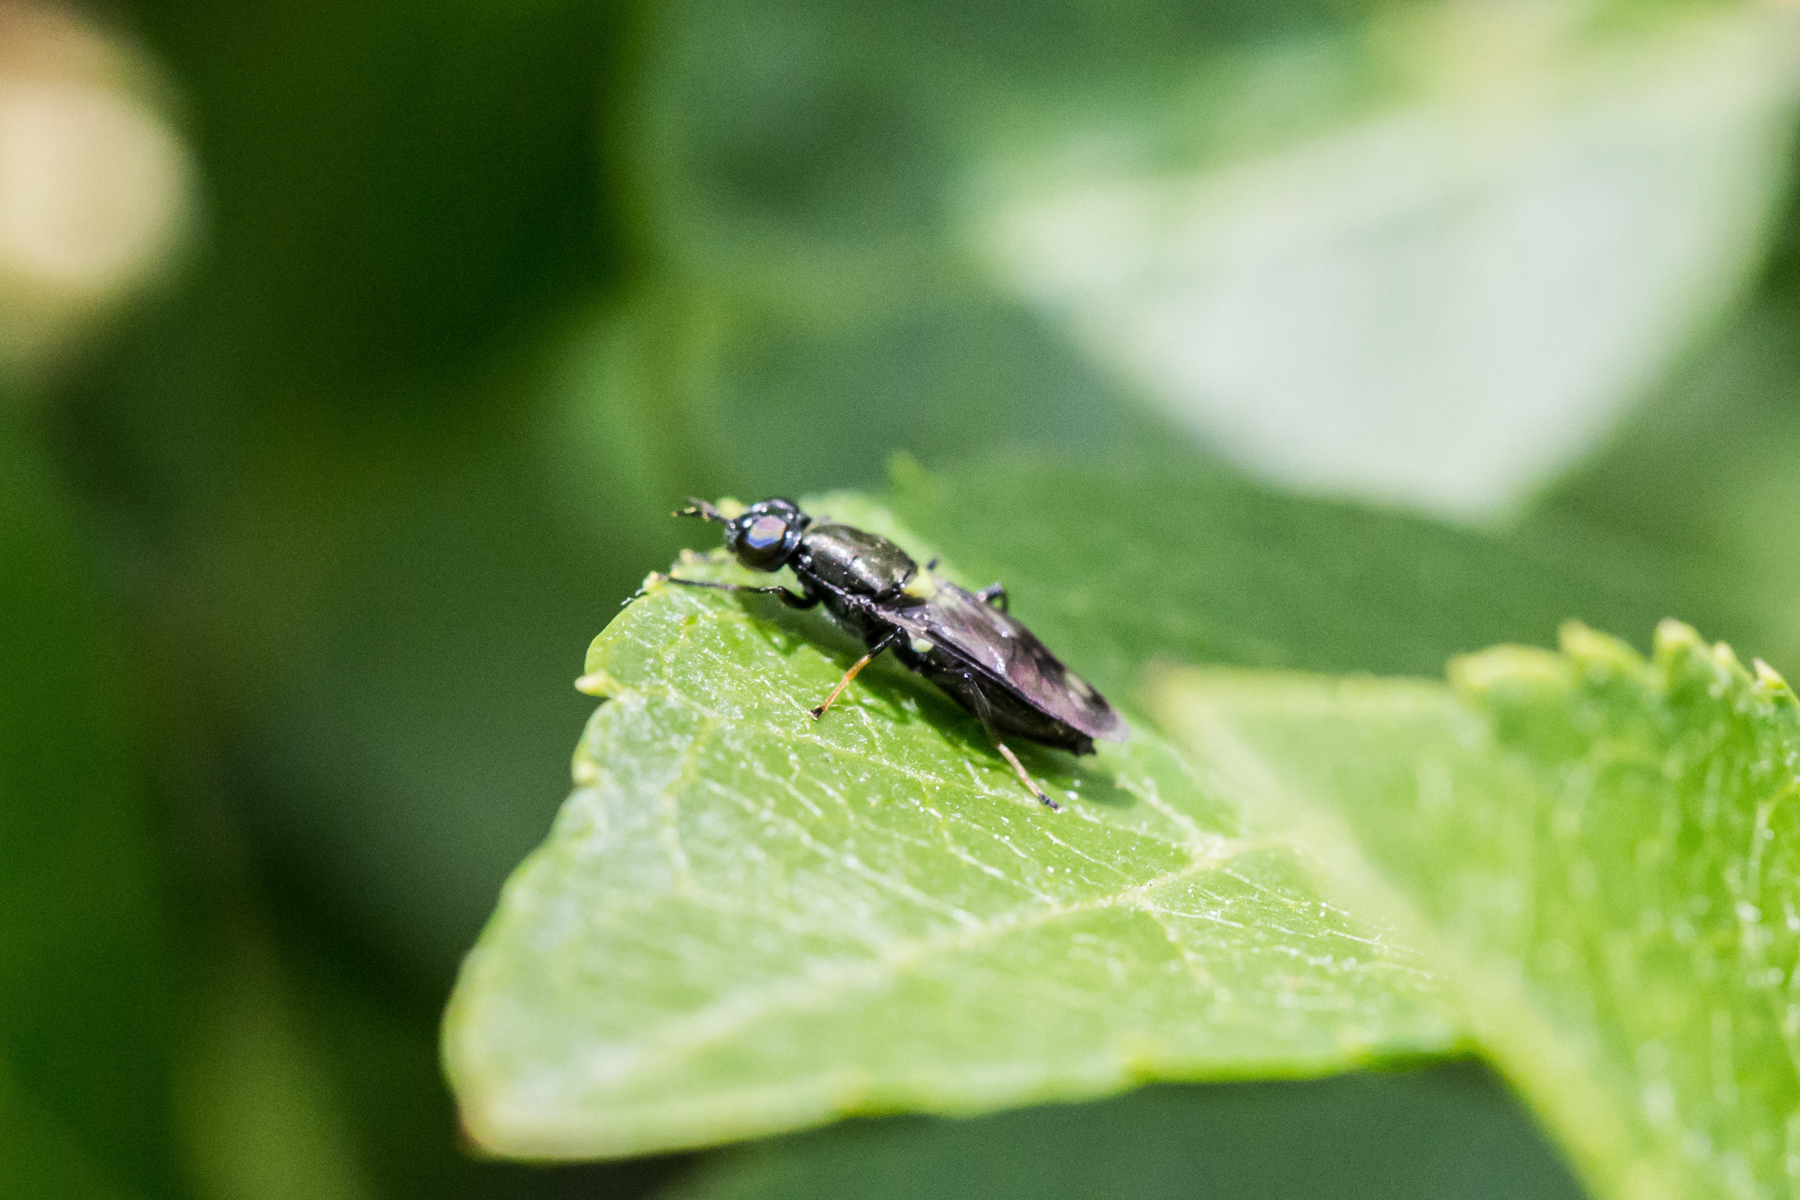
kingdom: Animalia
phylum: Arthropoda
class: Insecta
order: Diptera
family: Stratiomyidae
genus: Myxosargus
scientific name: Myxosargus nigricormis
